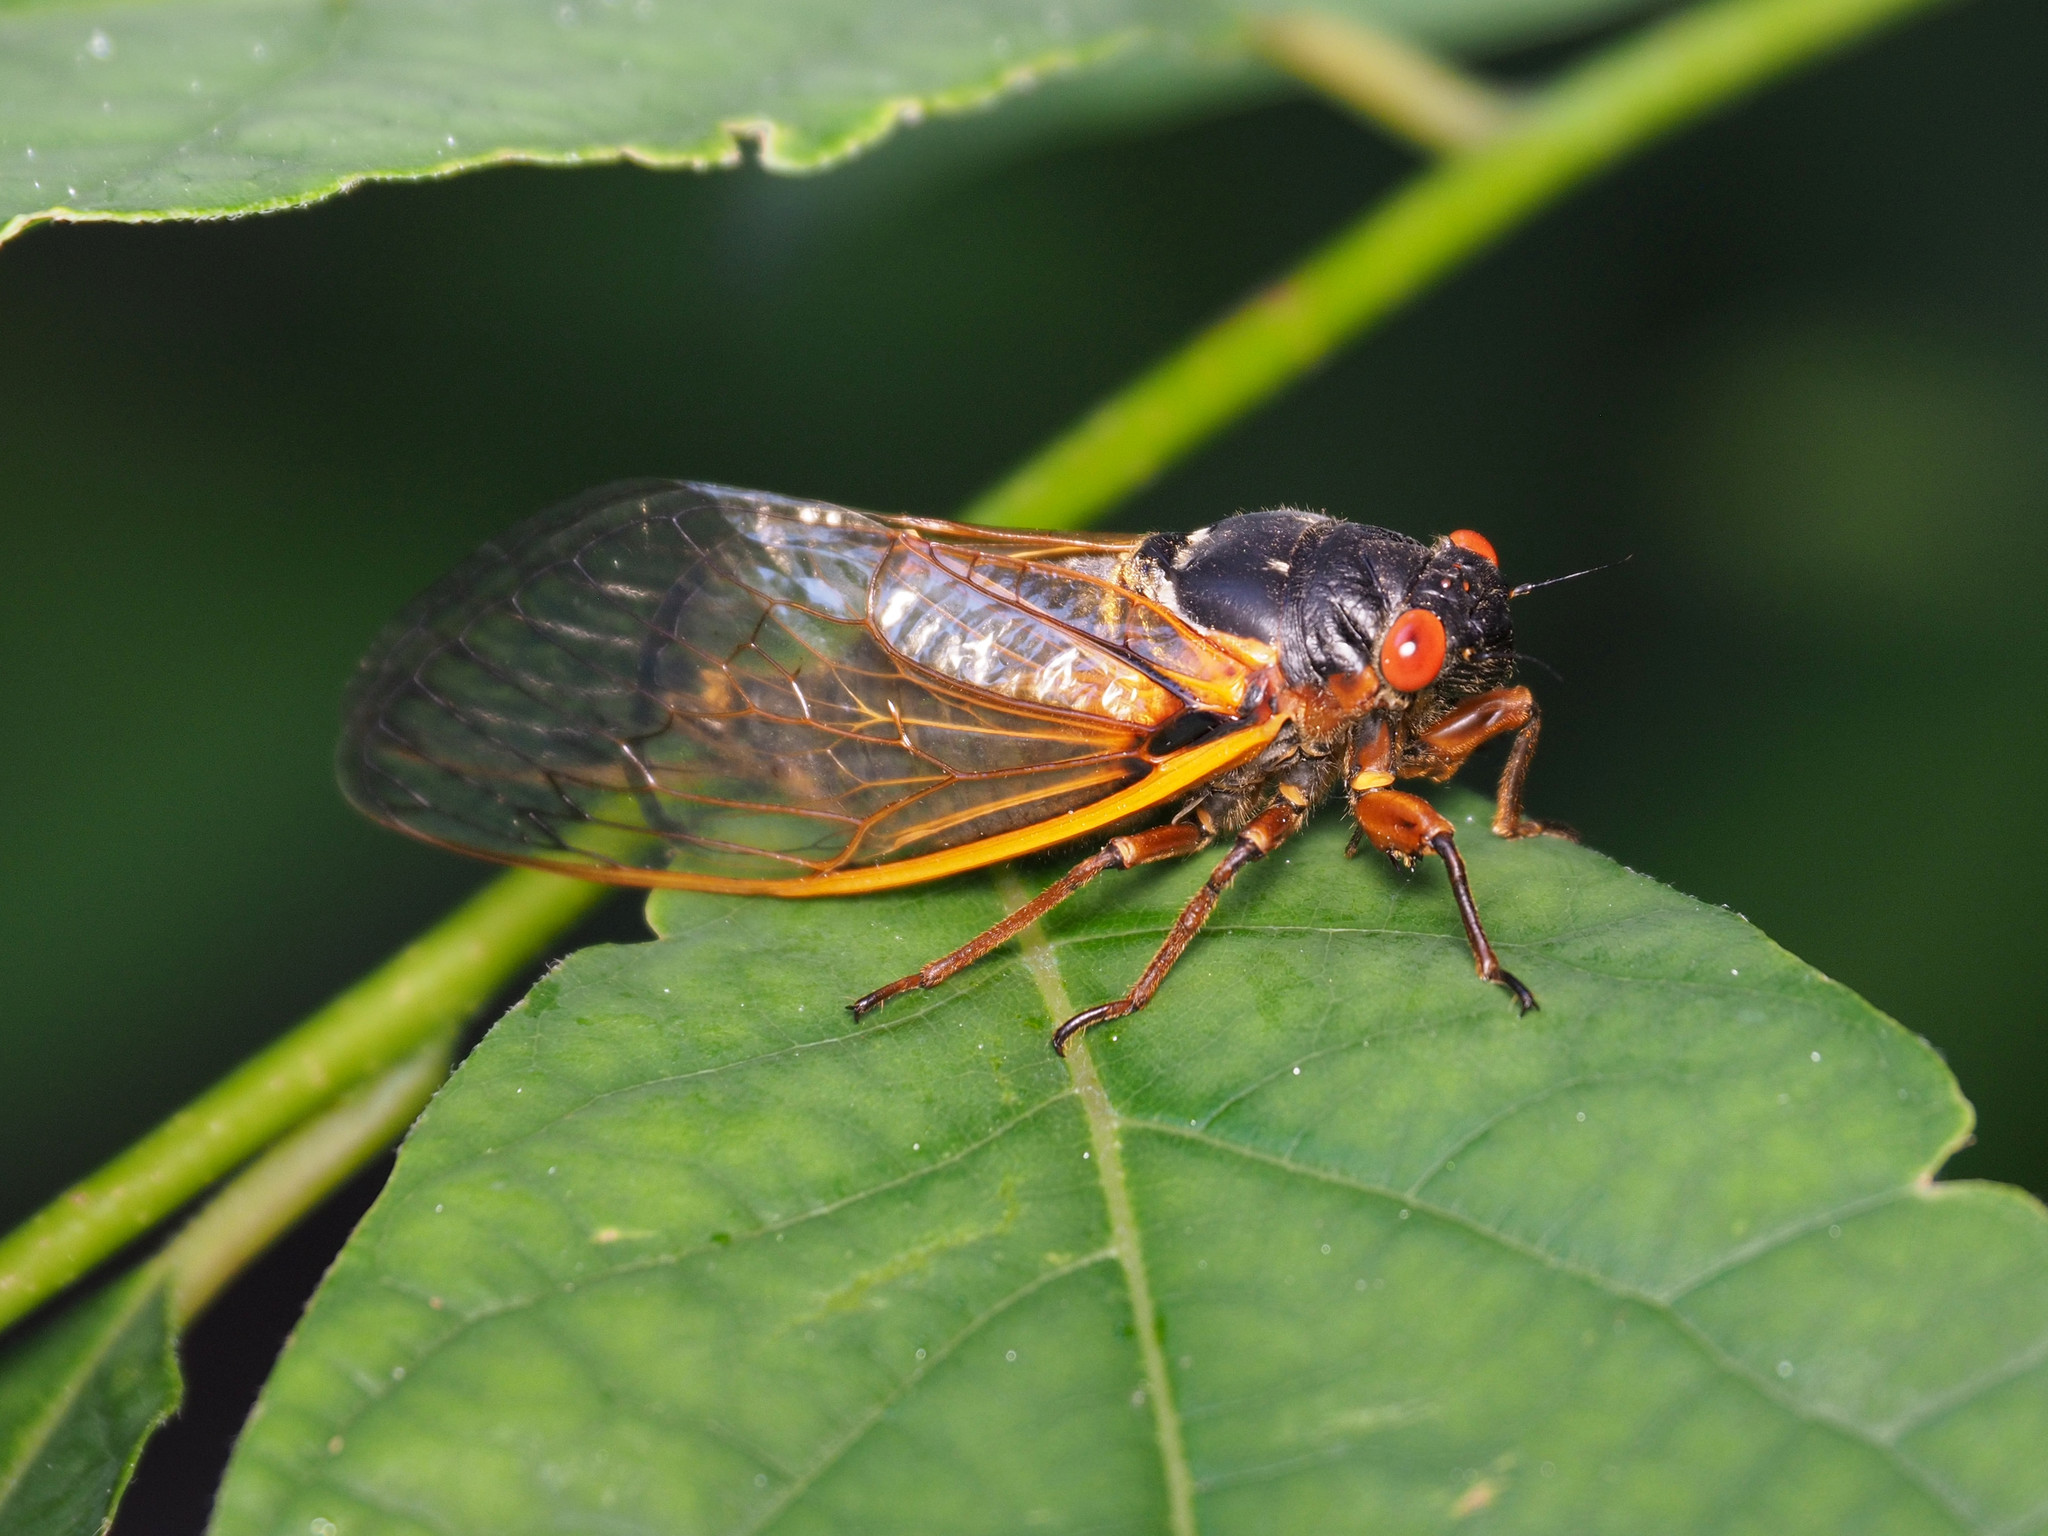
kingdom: Animalia
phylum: Arthropoda
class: Insecta
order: Hemiptera
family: Cicadidae
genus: Magicicada
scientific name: Magicicada septendecim
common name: Periodical cicada
